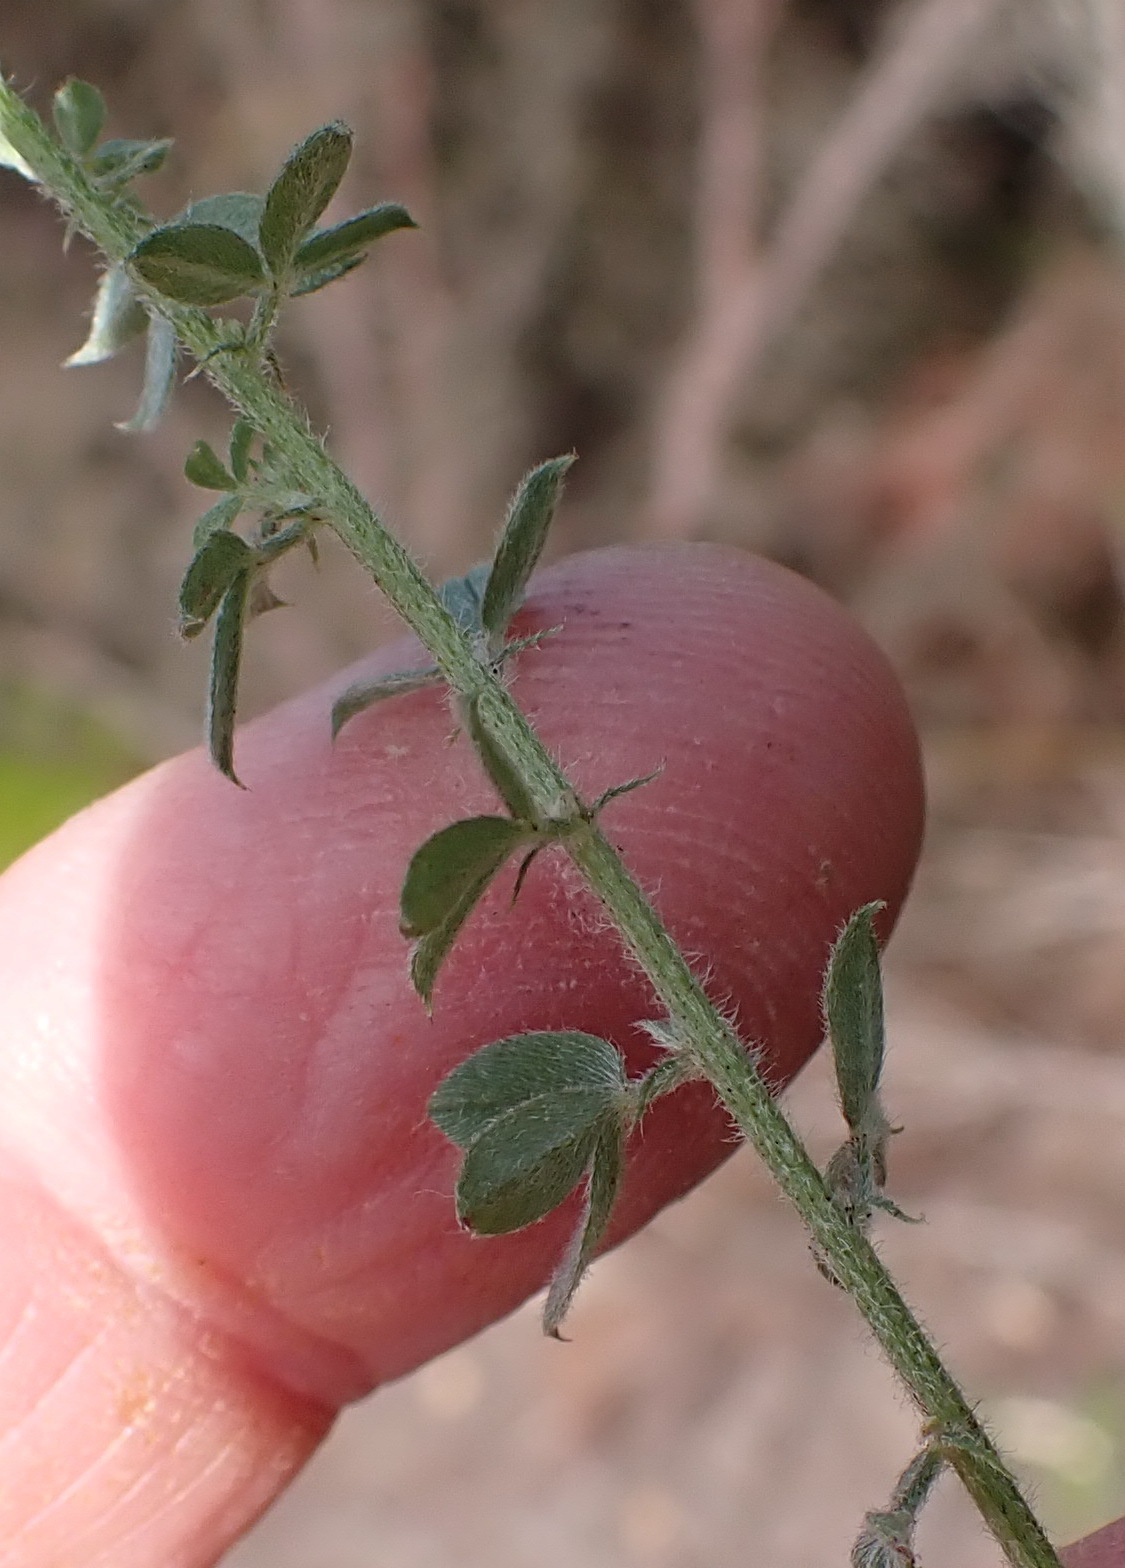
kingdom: Plantae
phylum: Tracheophyta
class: Magnoliopsida
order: Fabales
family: Fabaceae
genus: Indigofera
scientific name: Indigofera heterophylla
